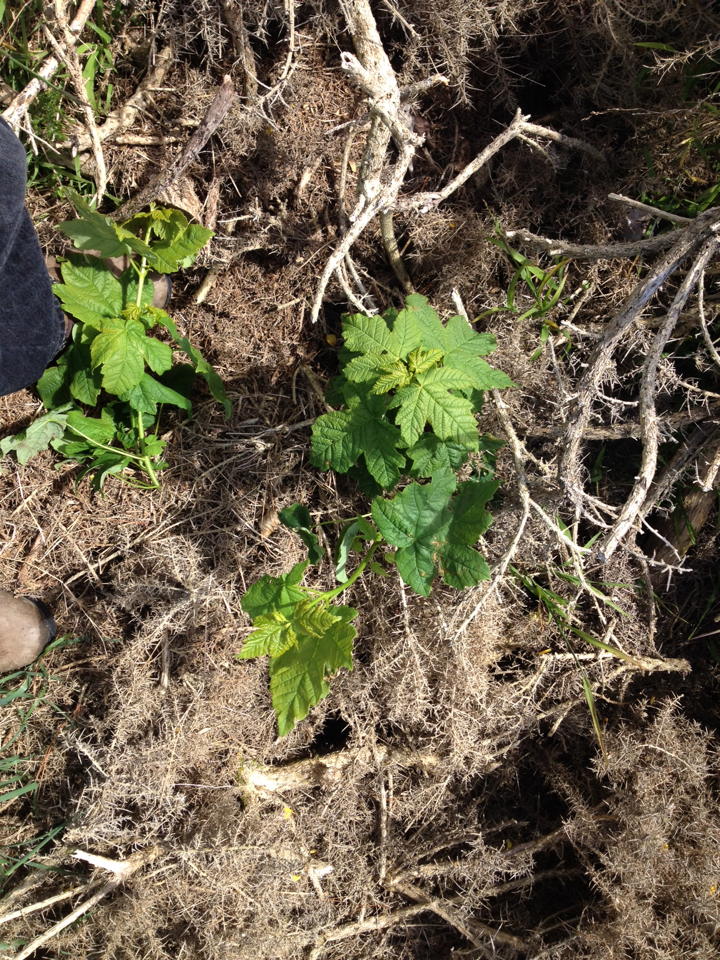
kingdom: Plantae
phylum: Tracheophyta
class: Magnoliopsida
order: Sapindales
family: Sapindaceae
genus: Acer
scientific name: Acer pseudoplatanus
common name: Sycamore
